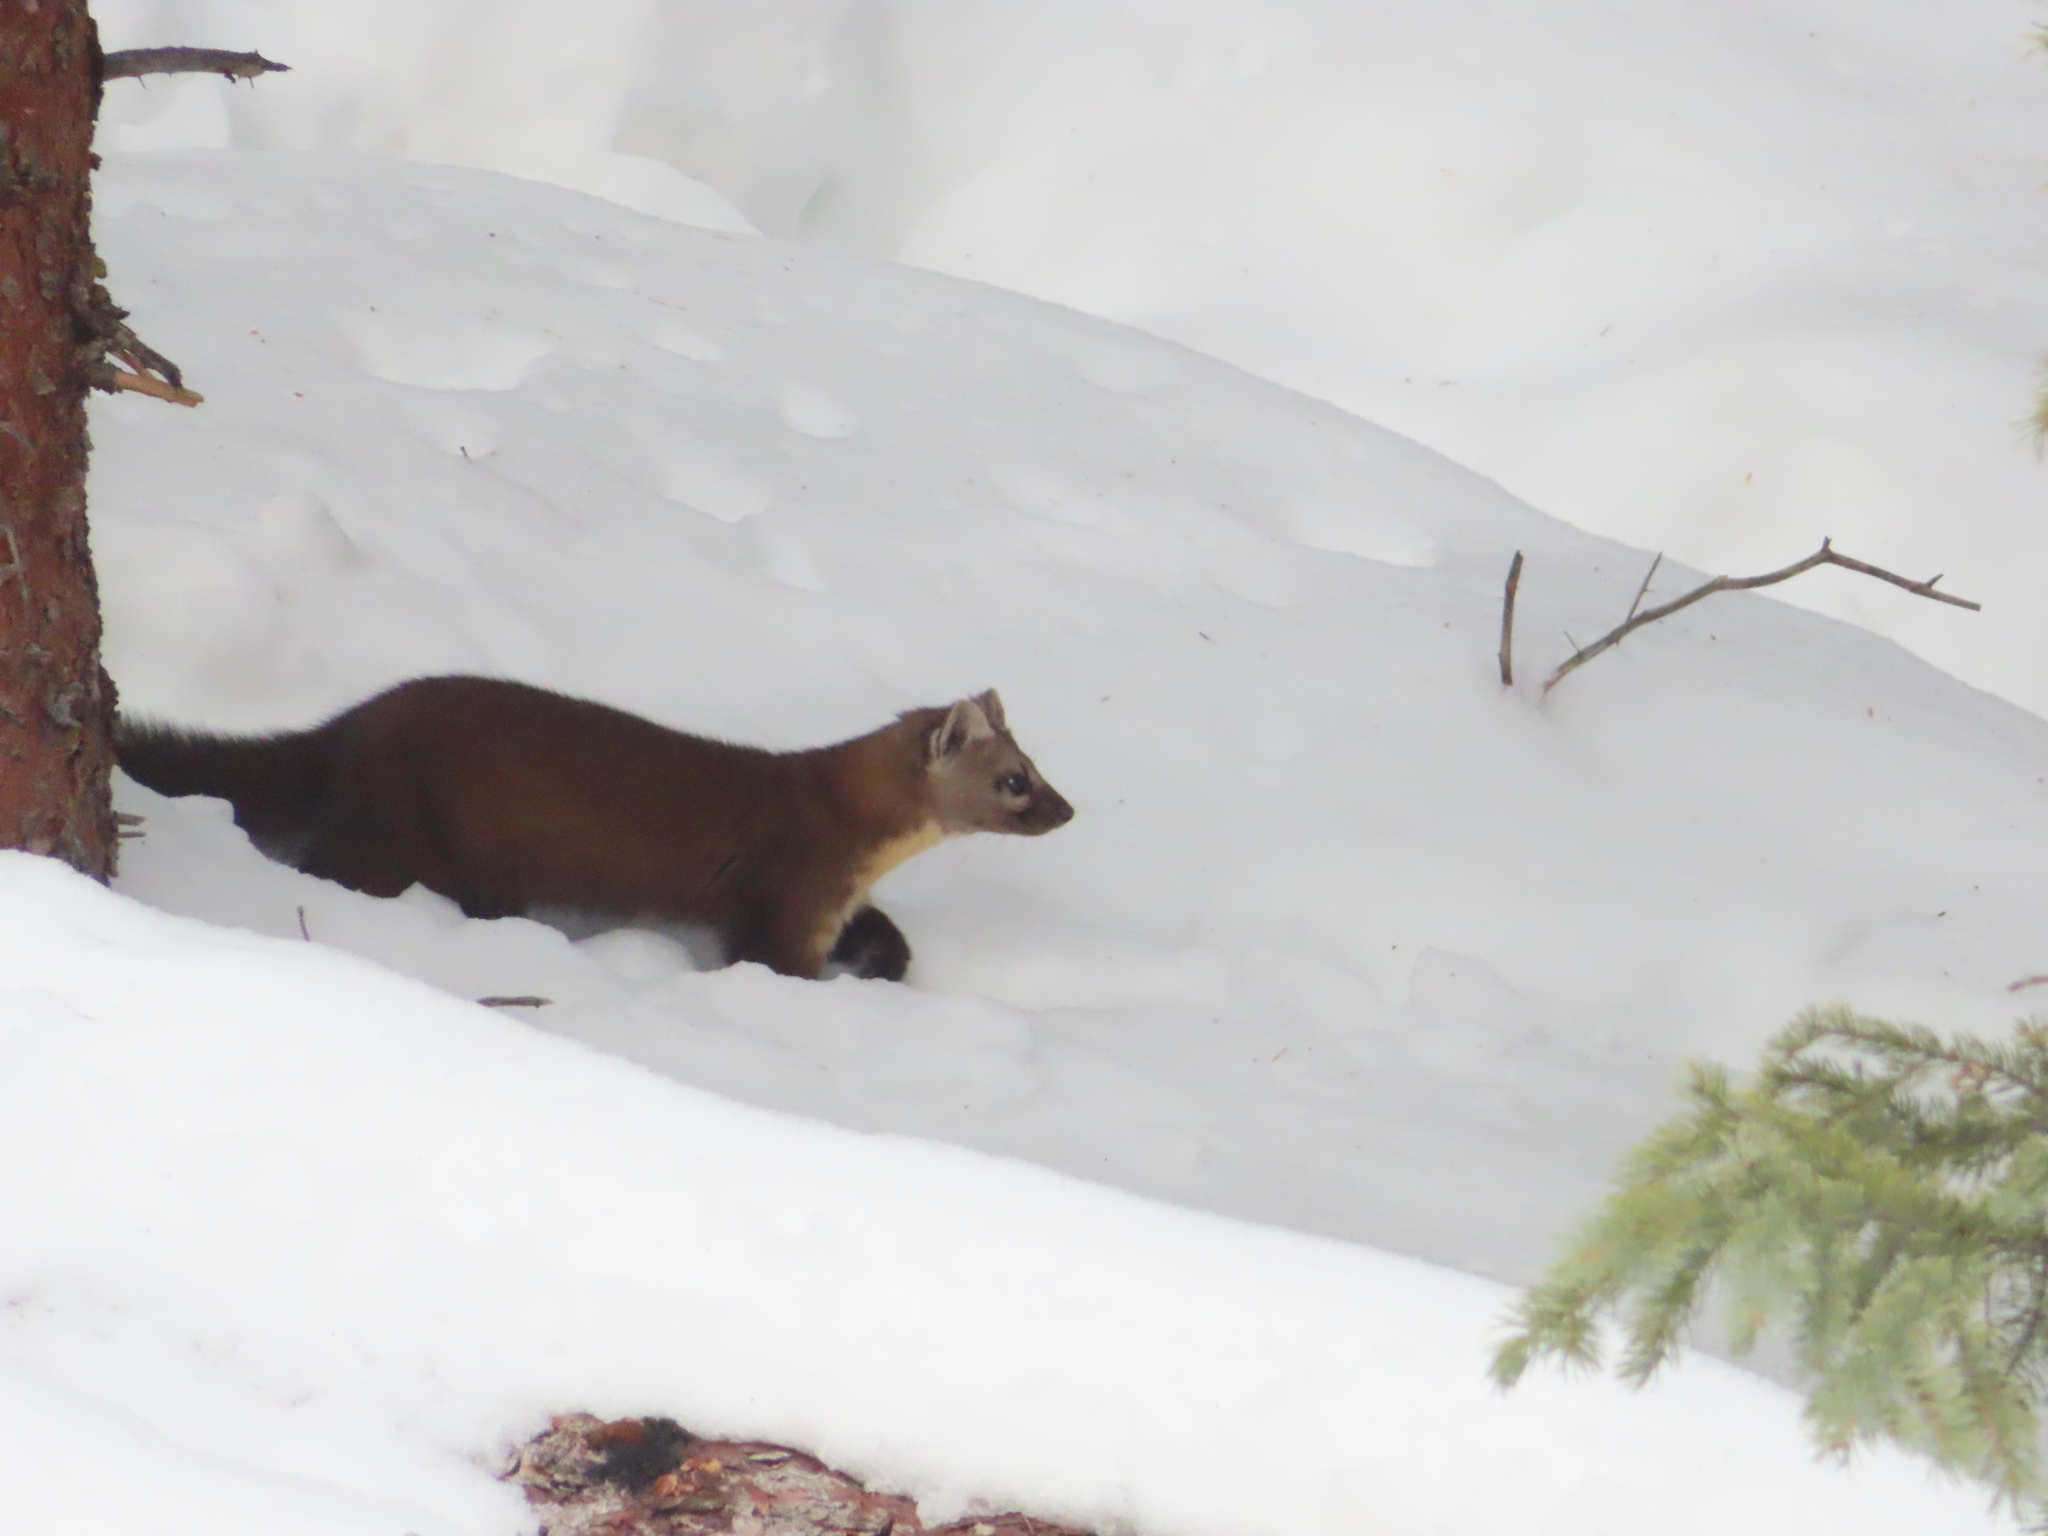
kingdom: Animalia
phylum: Chordata
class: Mammalia
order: Carnivora
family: Mustelidae
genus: Martes
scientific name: Martes caurina
